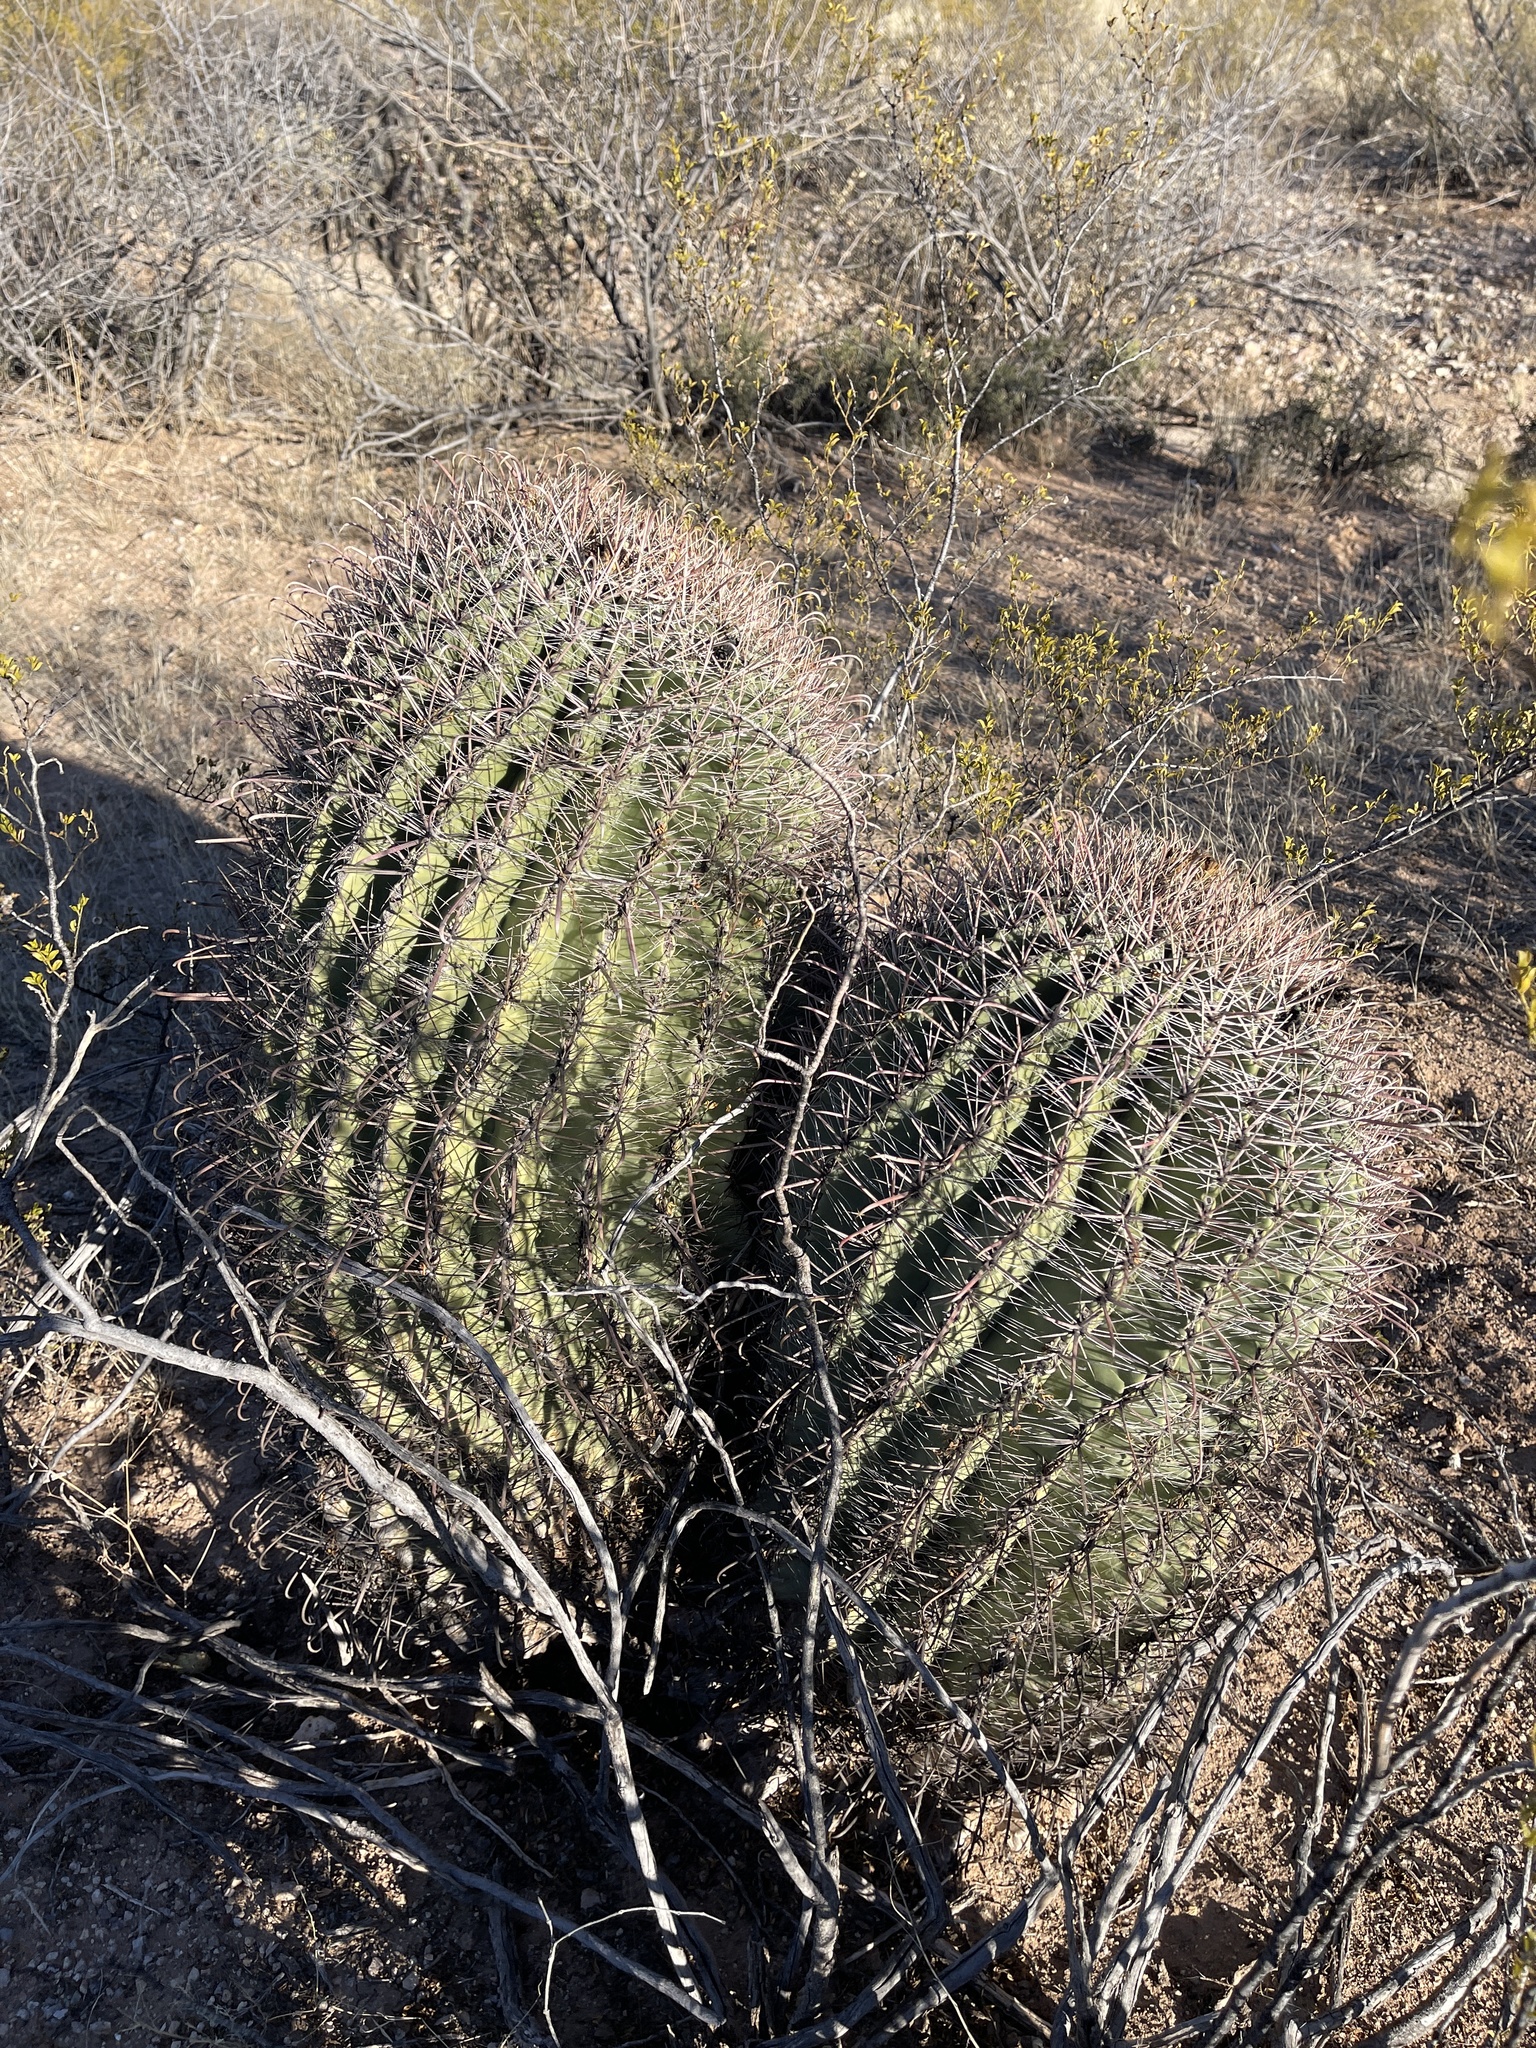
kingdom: Plantae
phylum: Tracheophyta
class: Magnoliopsida
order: Caryophyllales
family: Cactaceae
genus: Ferocactus
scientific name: Ferocactus wislizeni
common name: Candy barrel cactus
